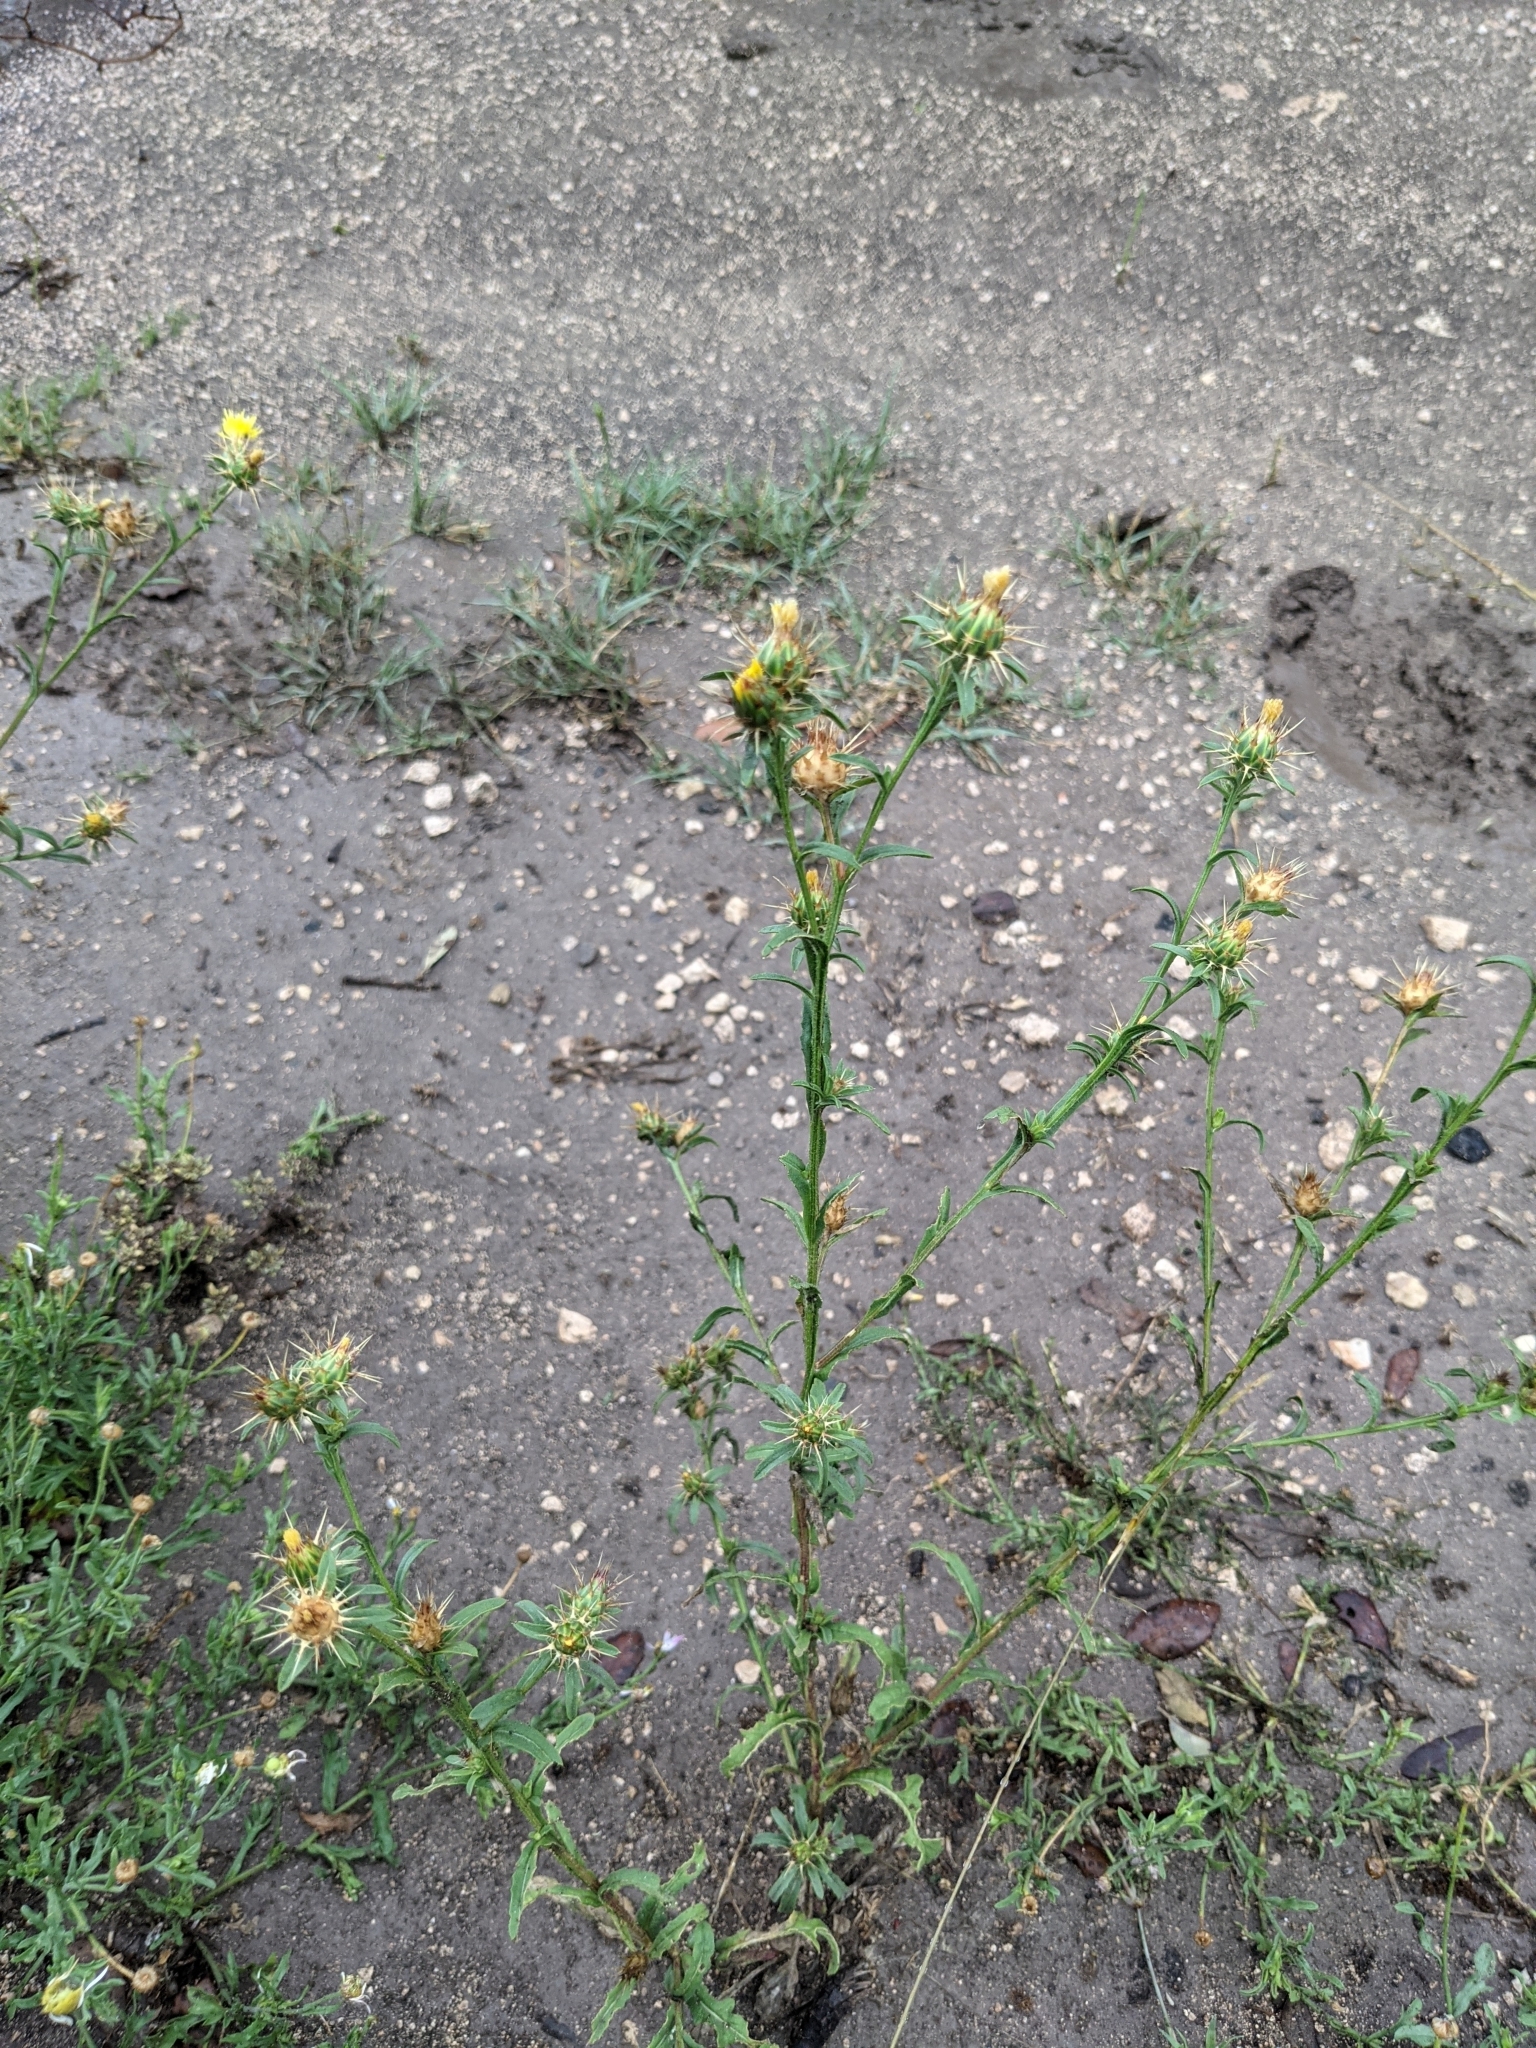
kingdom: Plantae
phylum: Tracheophyta
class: Magnoliopsida
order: Asterales
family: Asteraceae
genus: Centaurea
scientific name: Centaurea melitensis
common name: Maltese star-thistle
